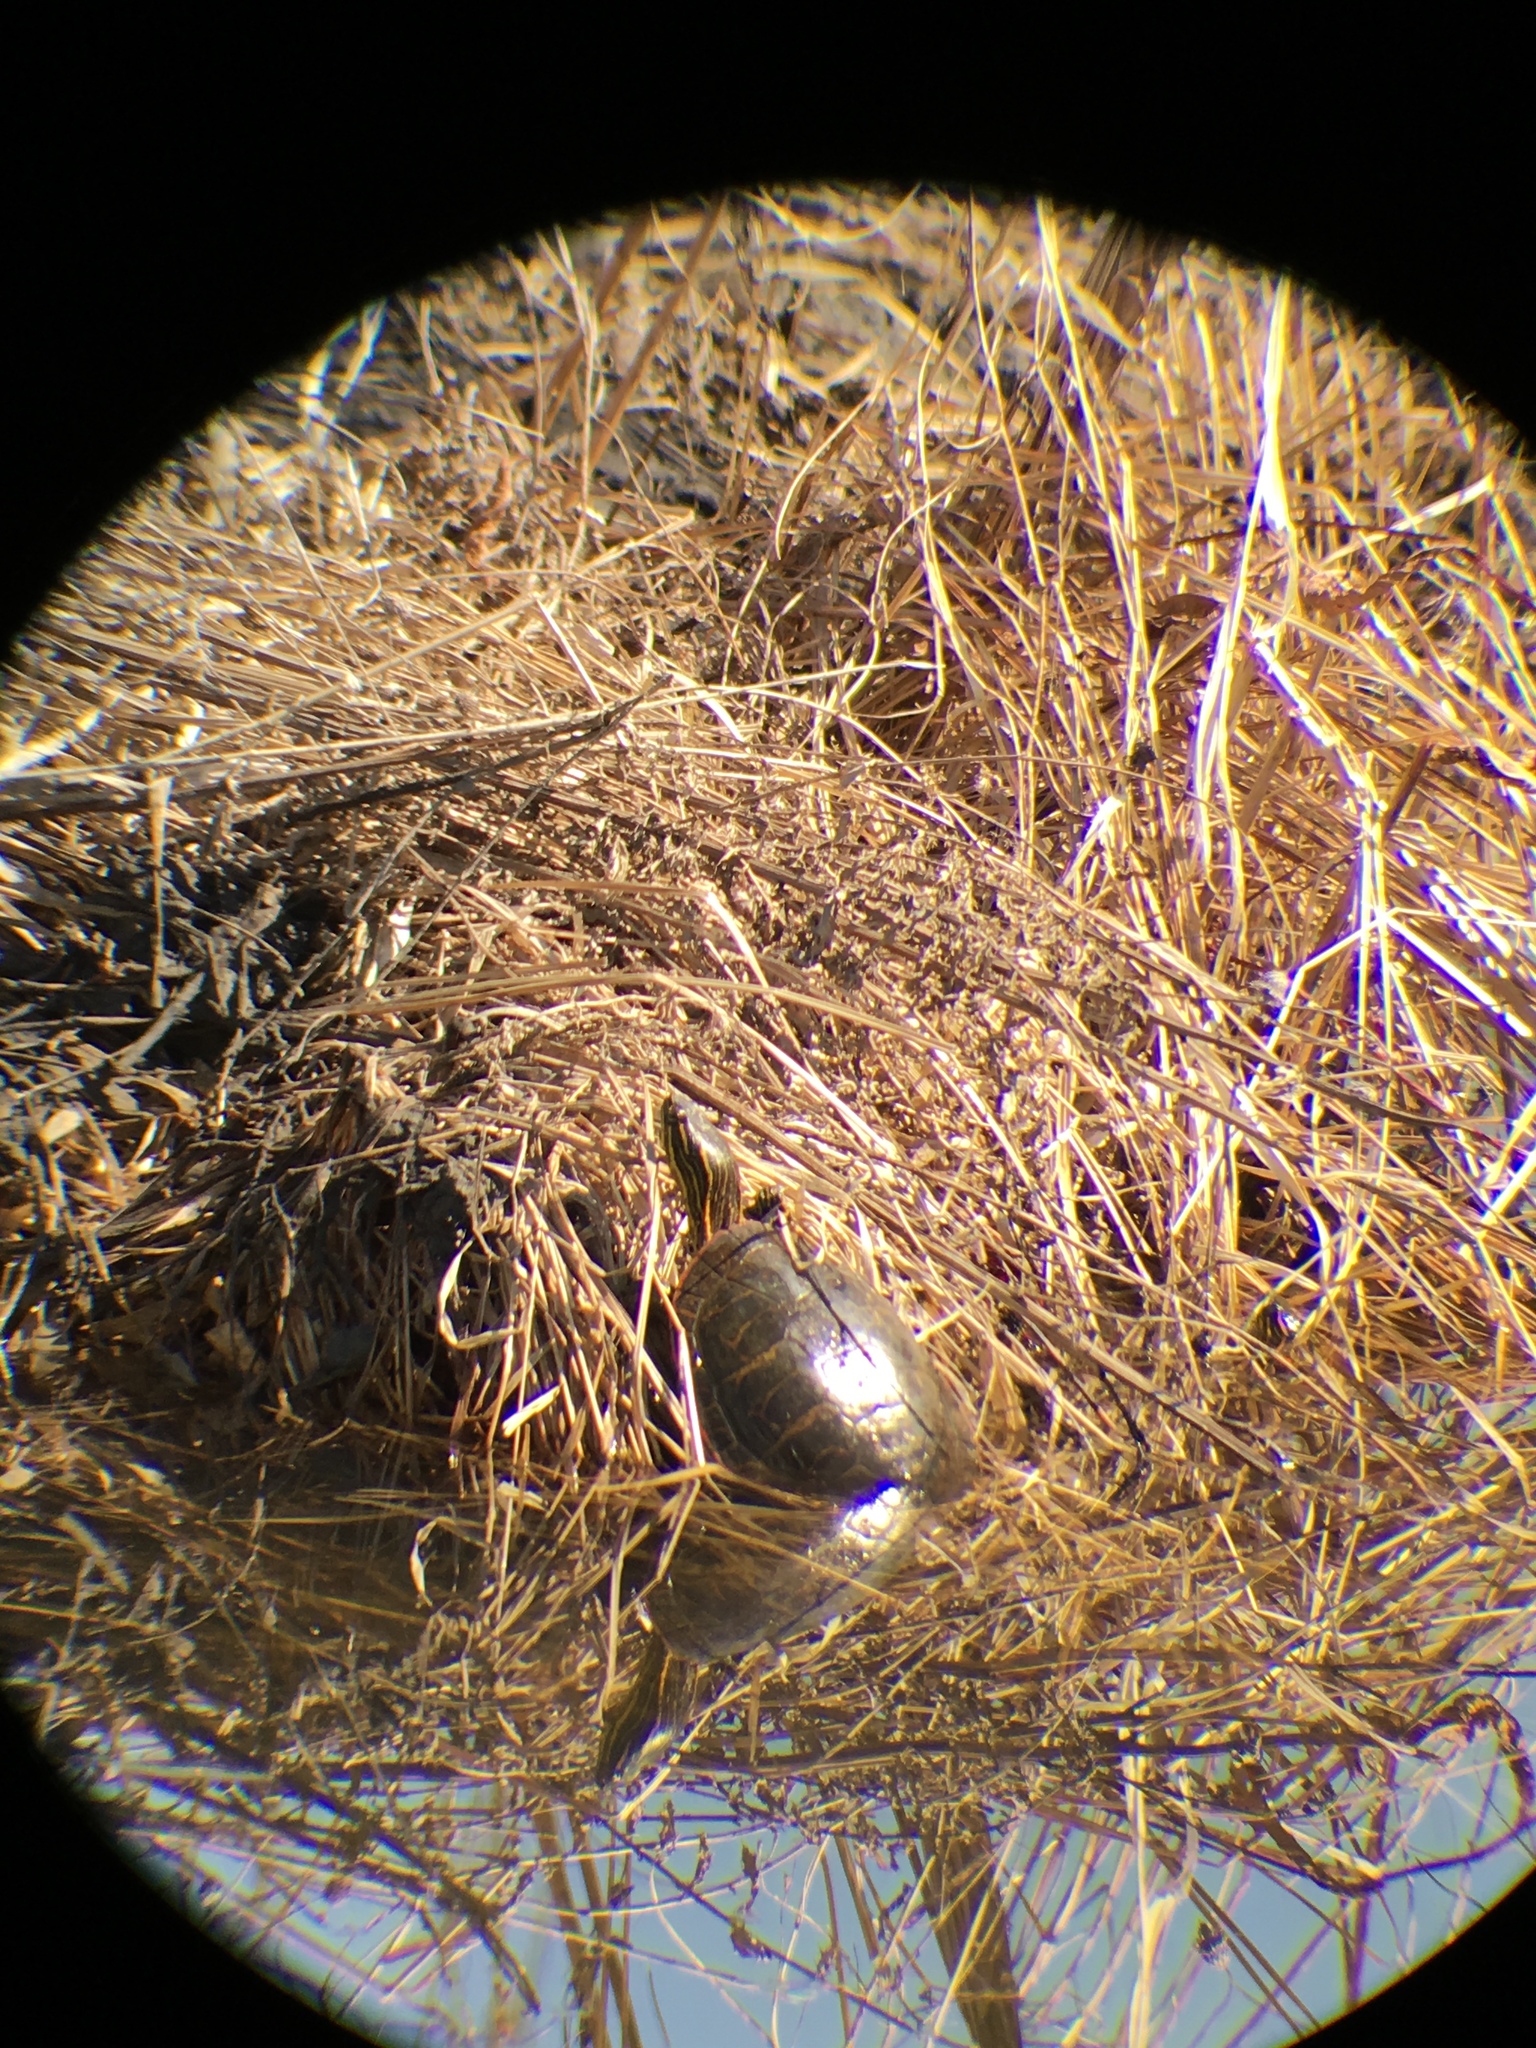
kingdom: Animalia
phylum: Chordata
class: Testudines
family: Emydidae
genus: Chrysemys
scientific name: Chrysemys picta
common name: Painted turtle
